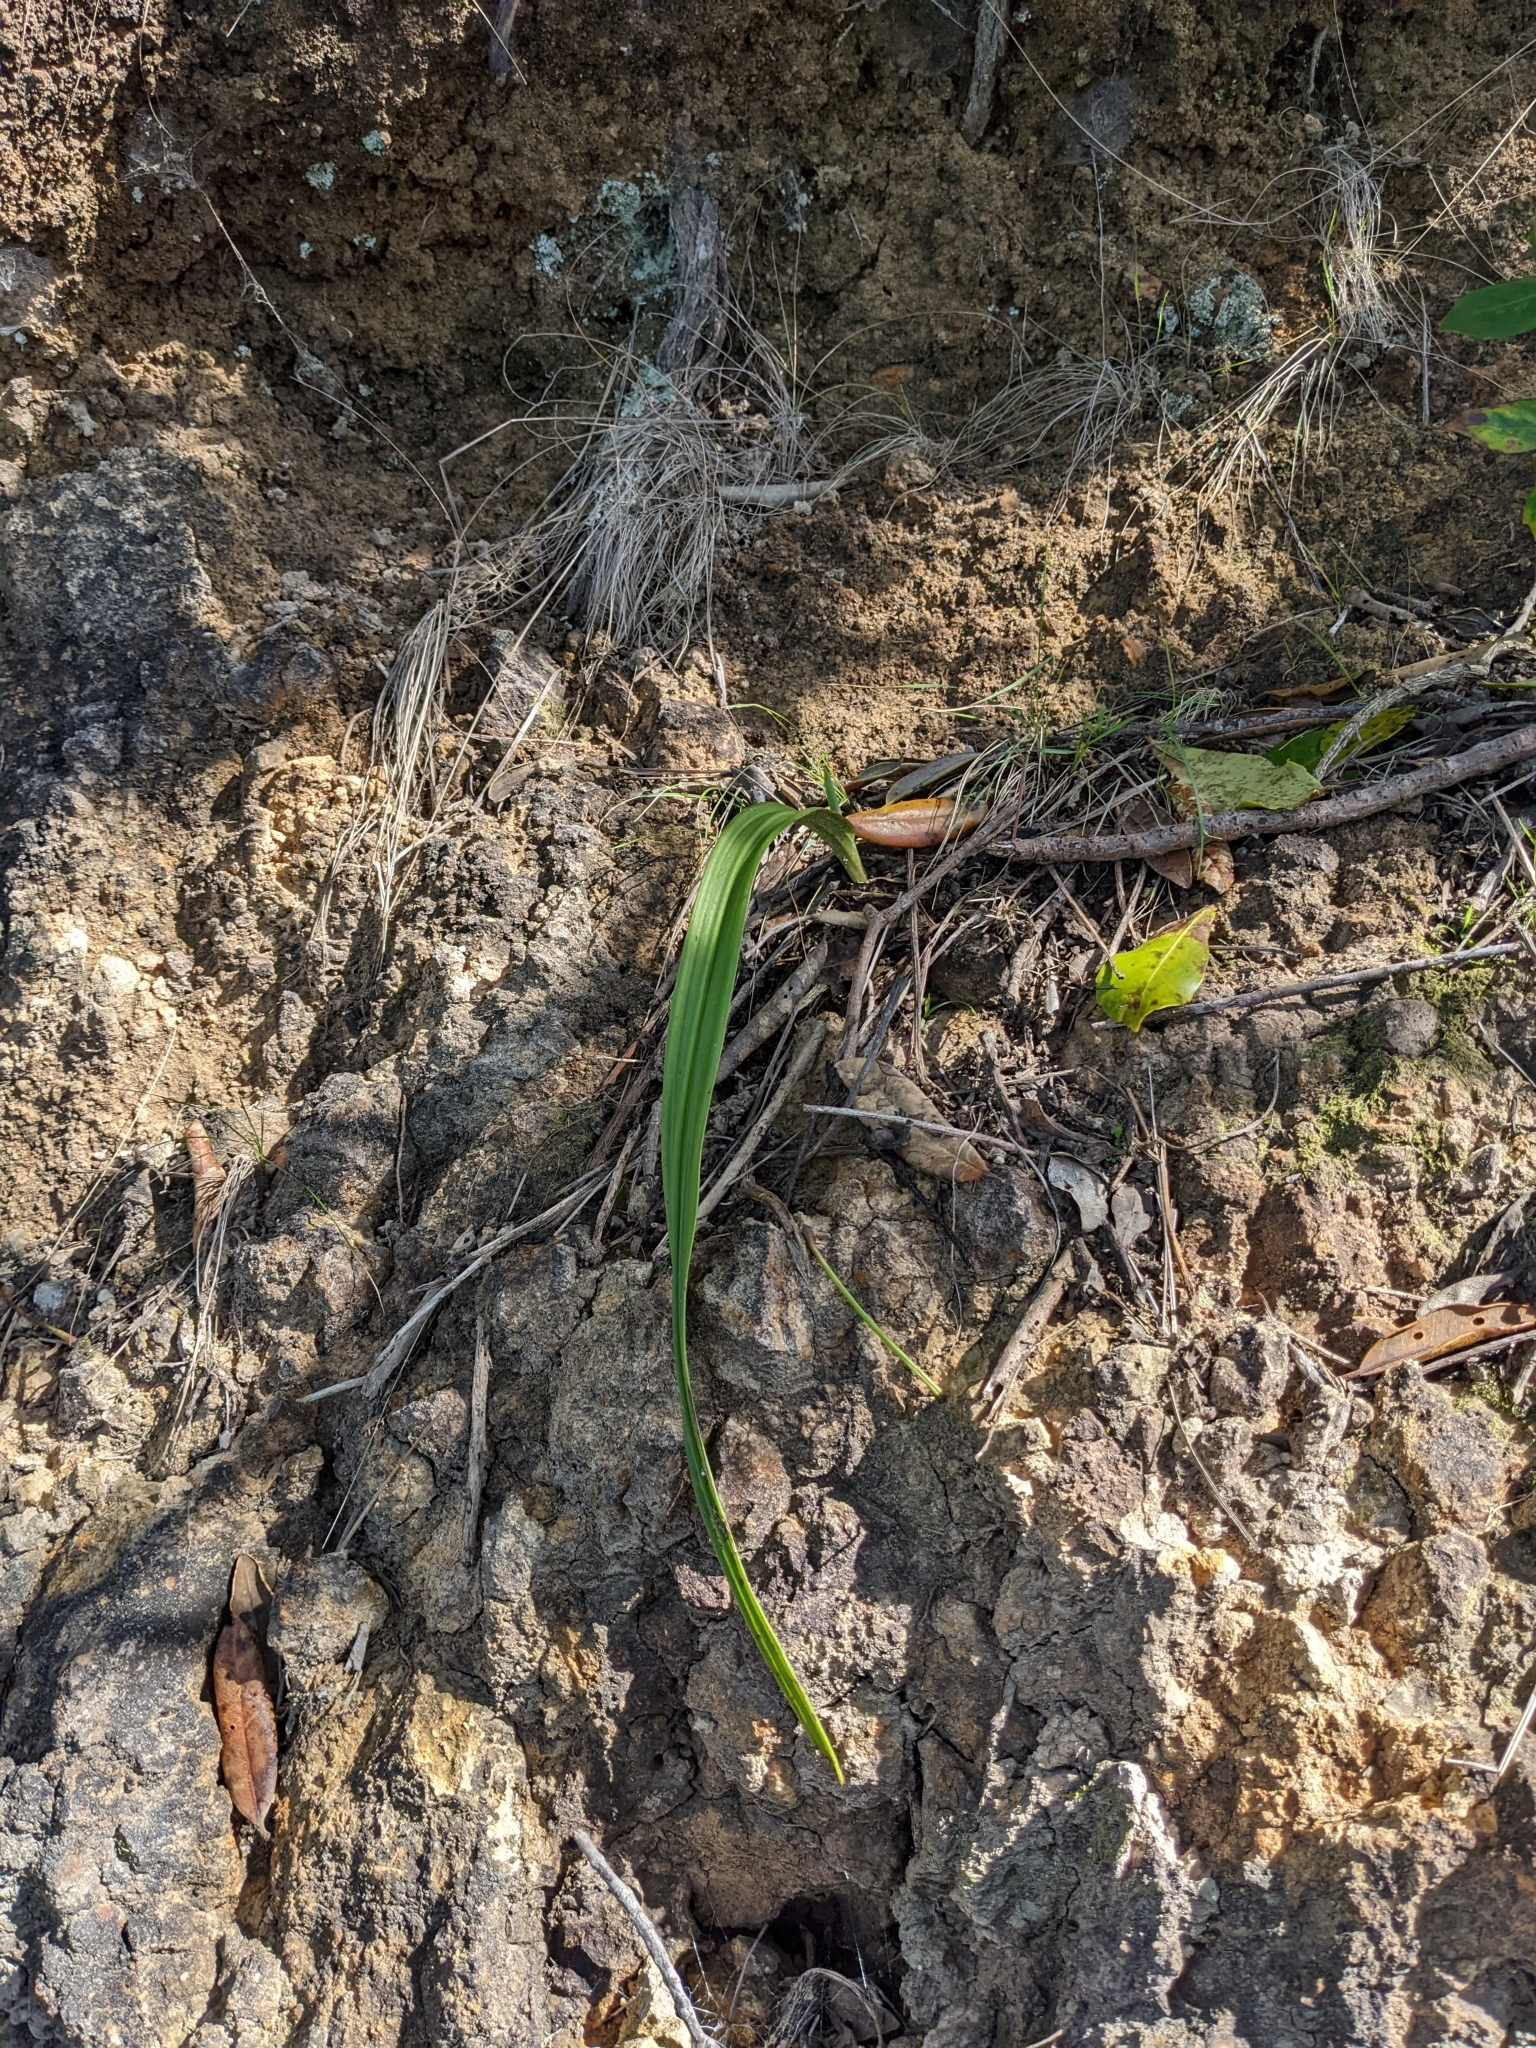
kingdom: Plantae
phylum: Tracheophyta
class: Liliopsida
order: Asparagales
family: Orchidaceae
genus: Thelymitra
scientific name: Thelymitra longifolia
